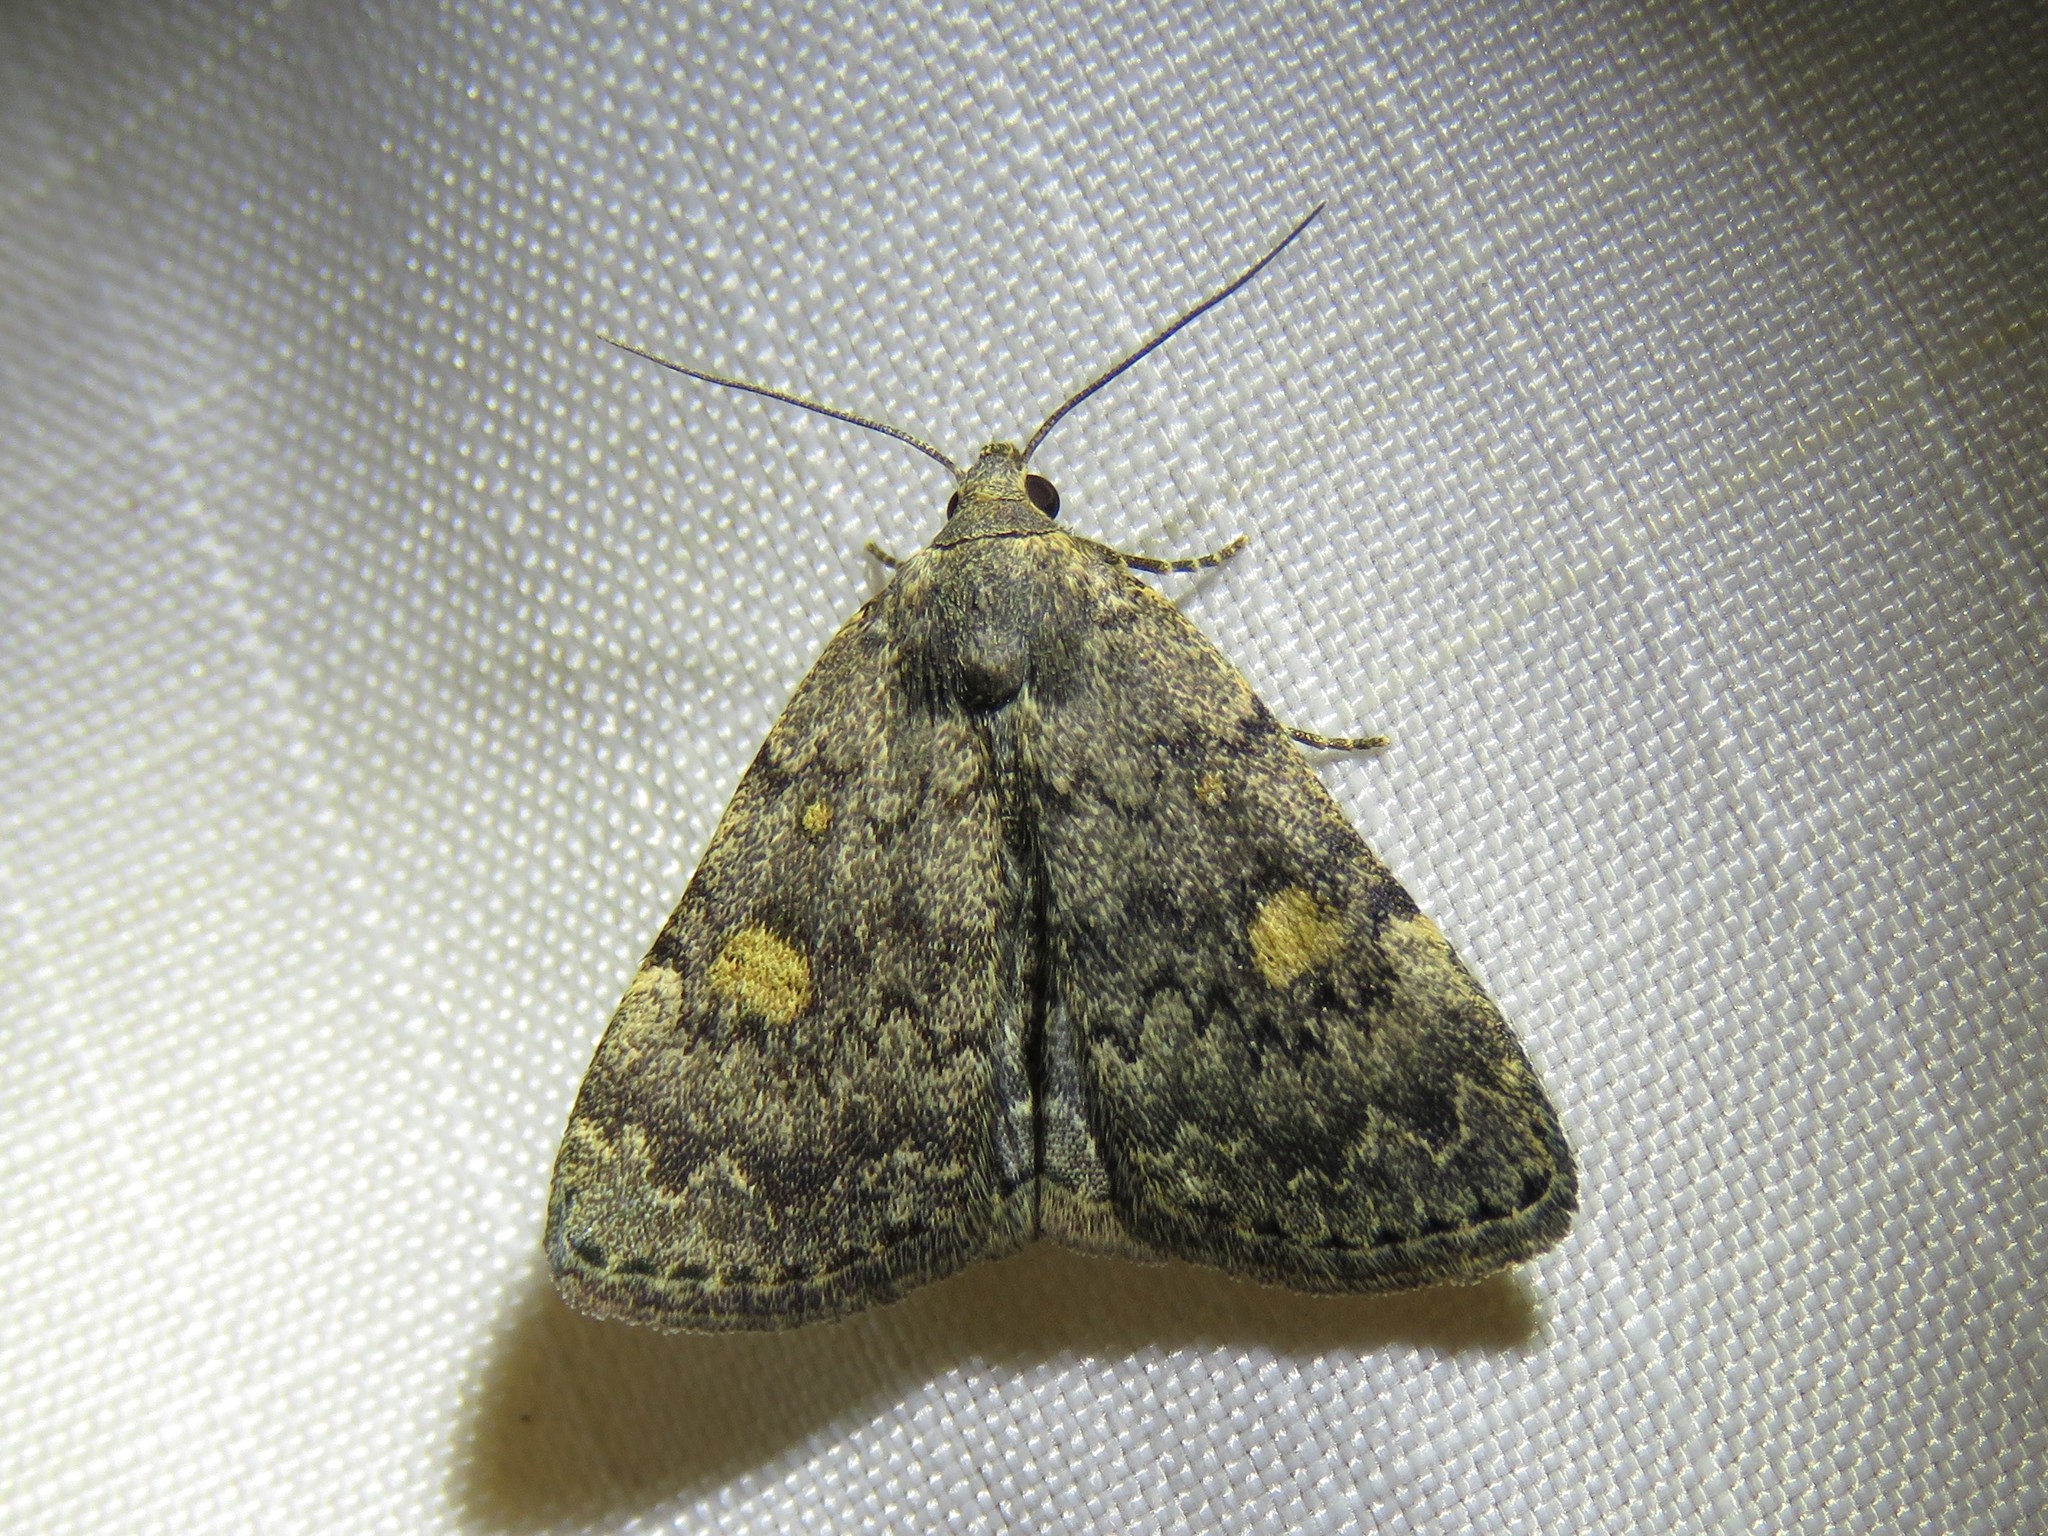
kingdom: Animalia
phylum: Arthropoda
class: Insecta
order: Lepidoptera
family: Erebidae
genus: Idia
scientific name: Idia aemula
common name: Common idia moth
